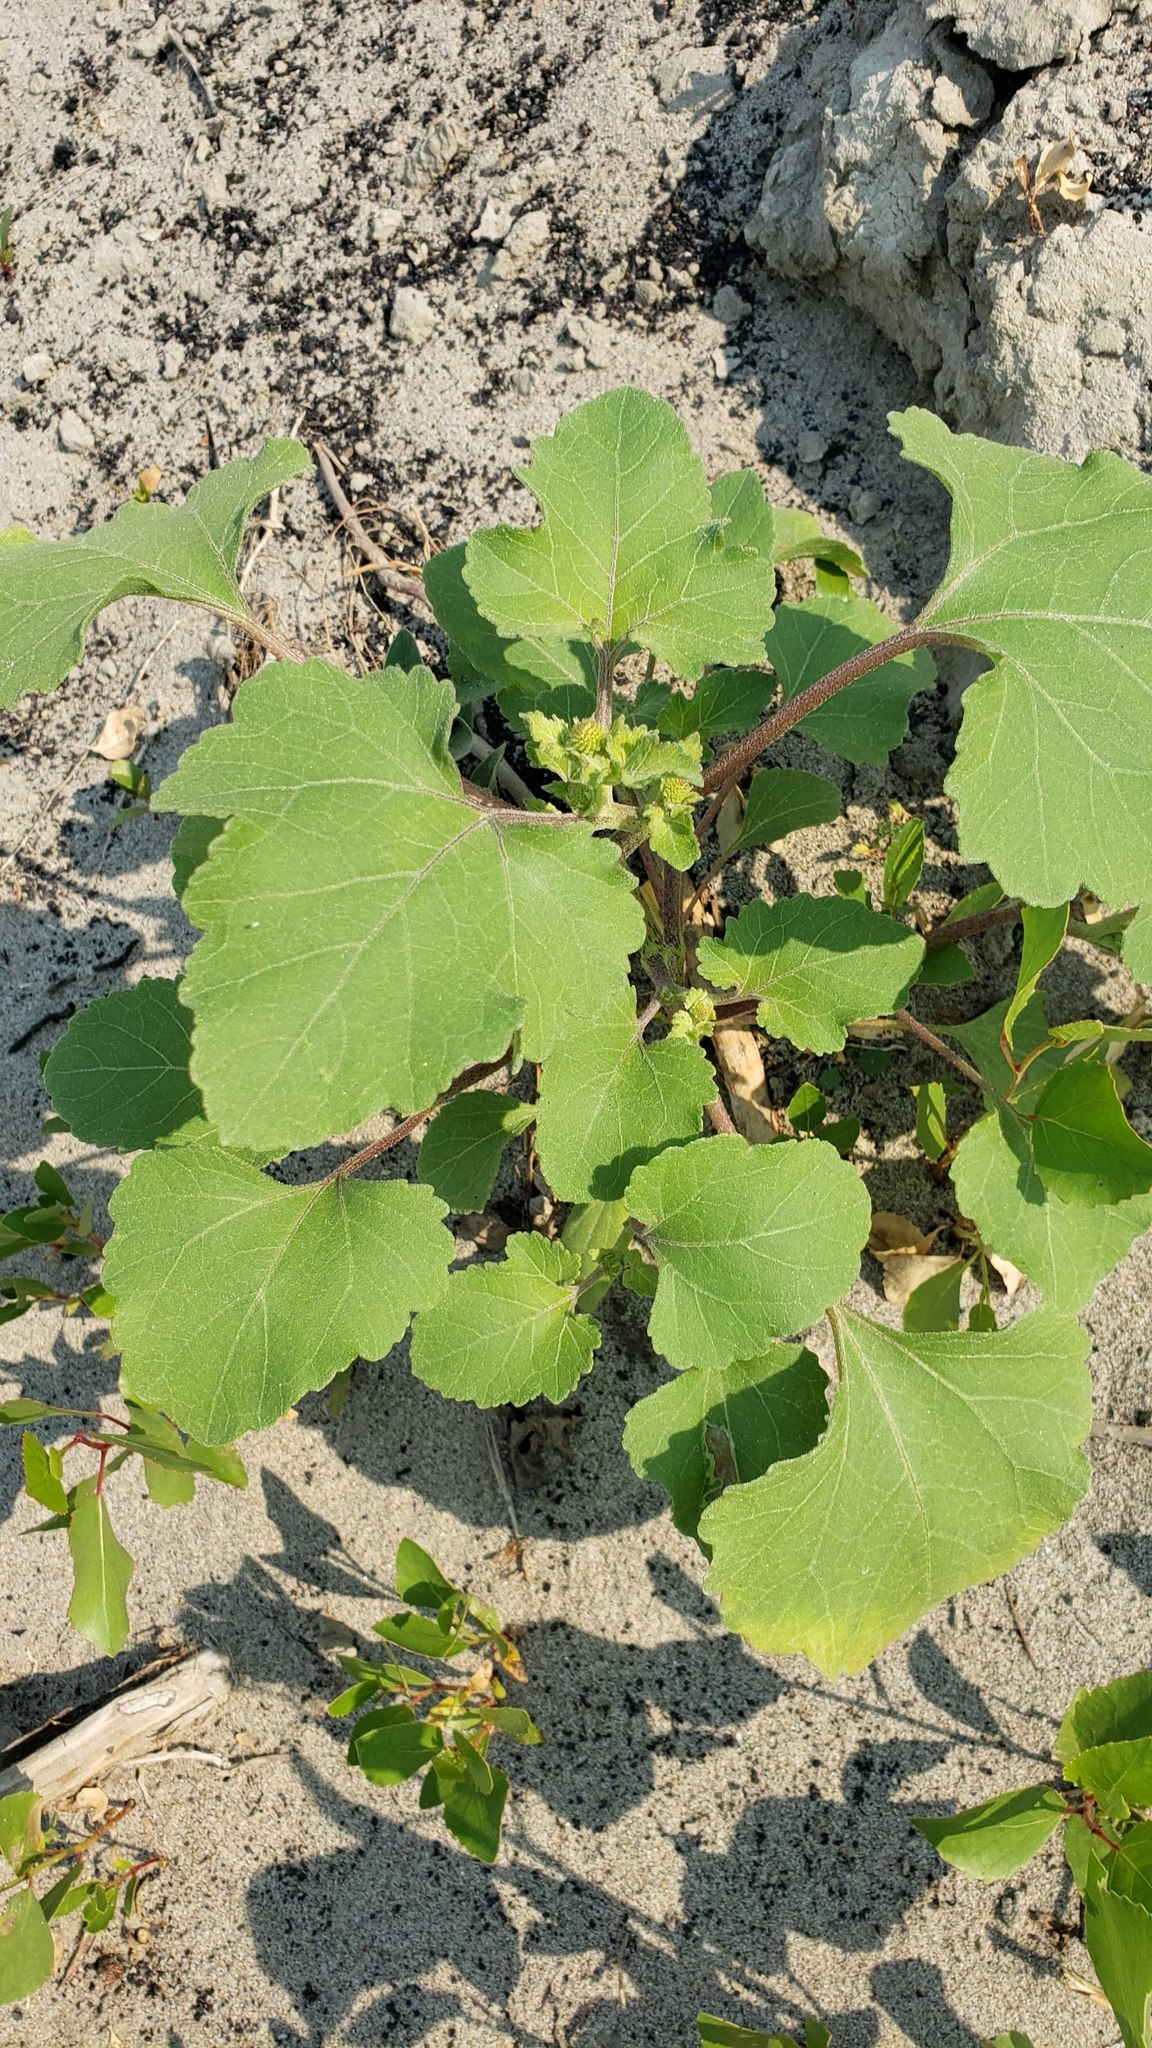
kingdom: Plantae
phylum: Tracheophyta
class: Magnoliopsida
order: Asterales
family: Asteraceae
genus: Xanthium
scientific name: Xanthium strumarium
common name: Rough cocklebur
